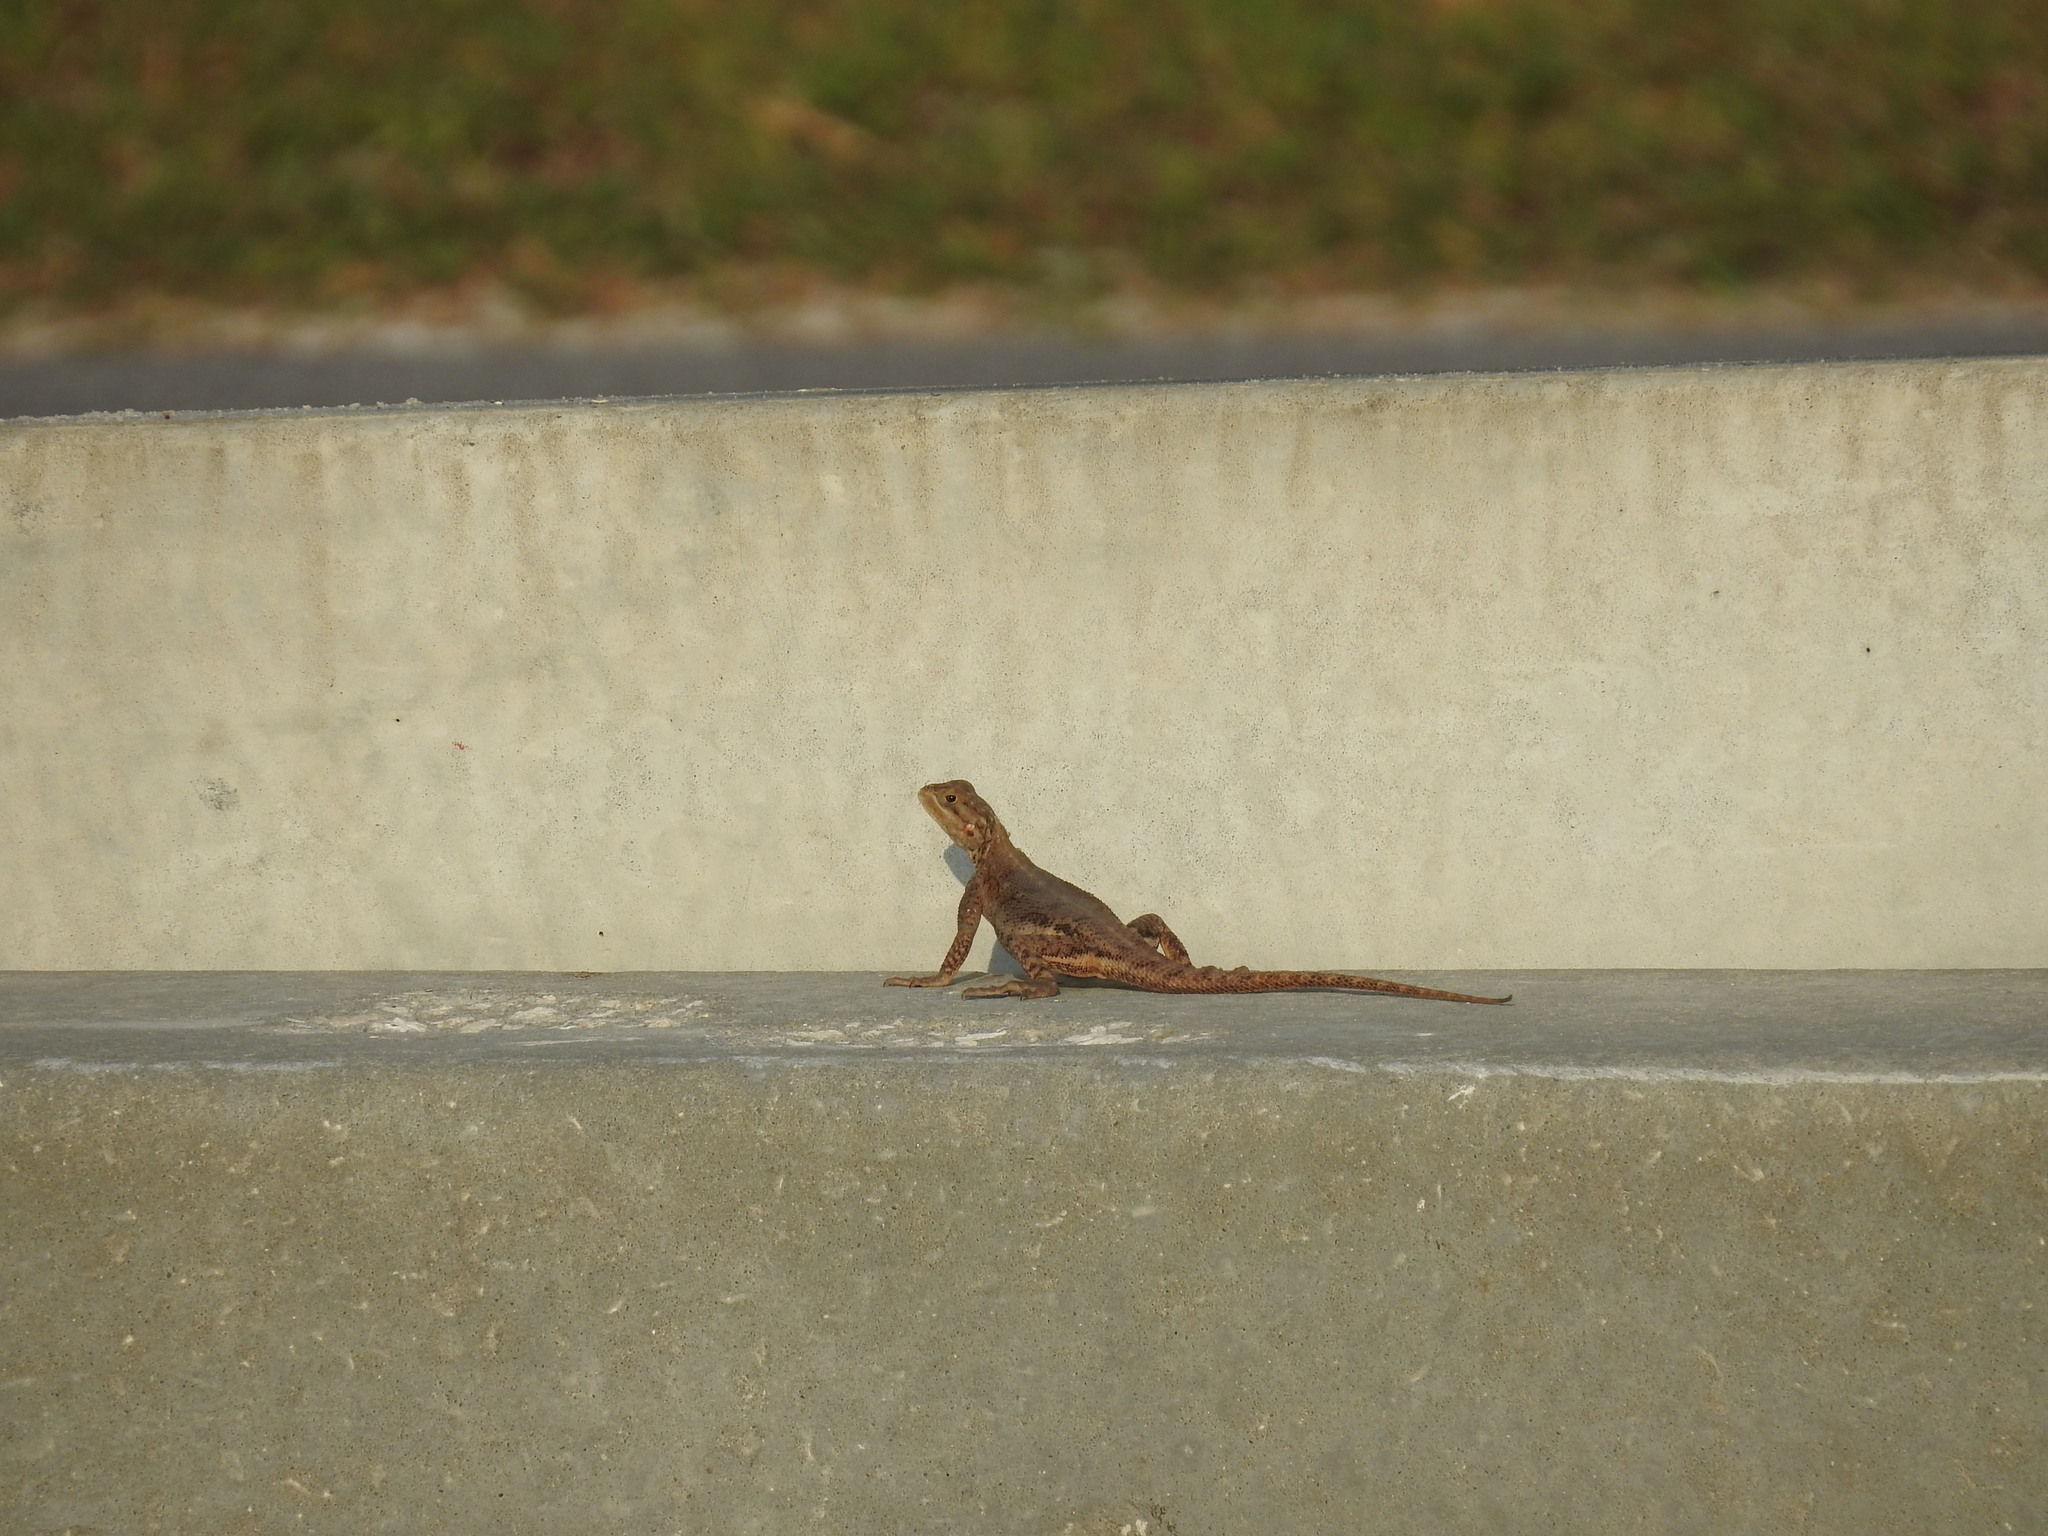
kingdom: Animalia
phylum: Chordata
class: Squamata
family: Agamidae
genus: Agama
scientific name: Agama picticauda
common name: Red-headed agama
